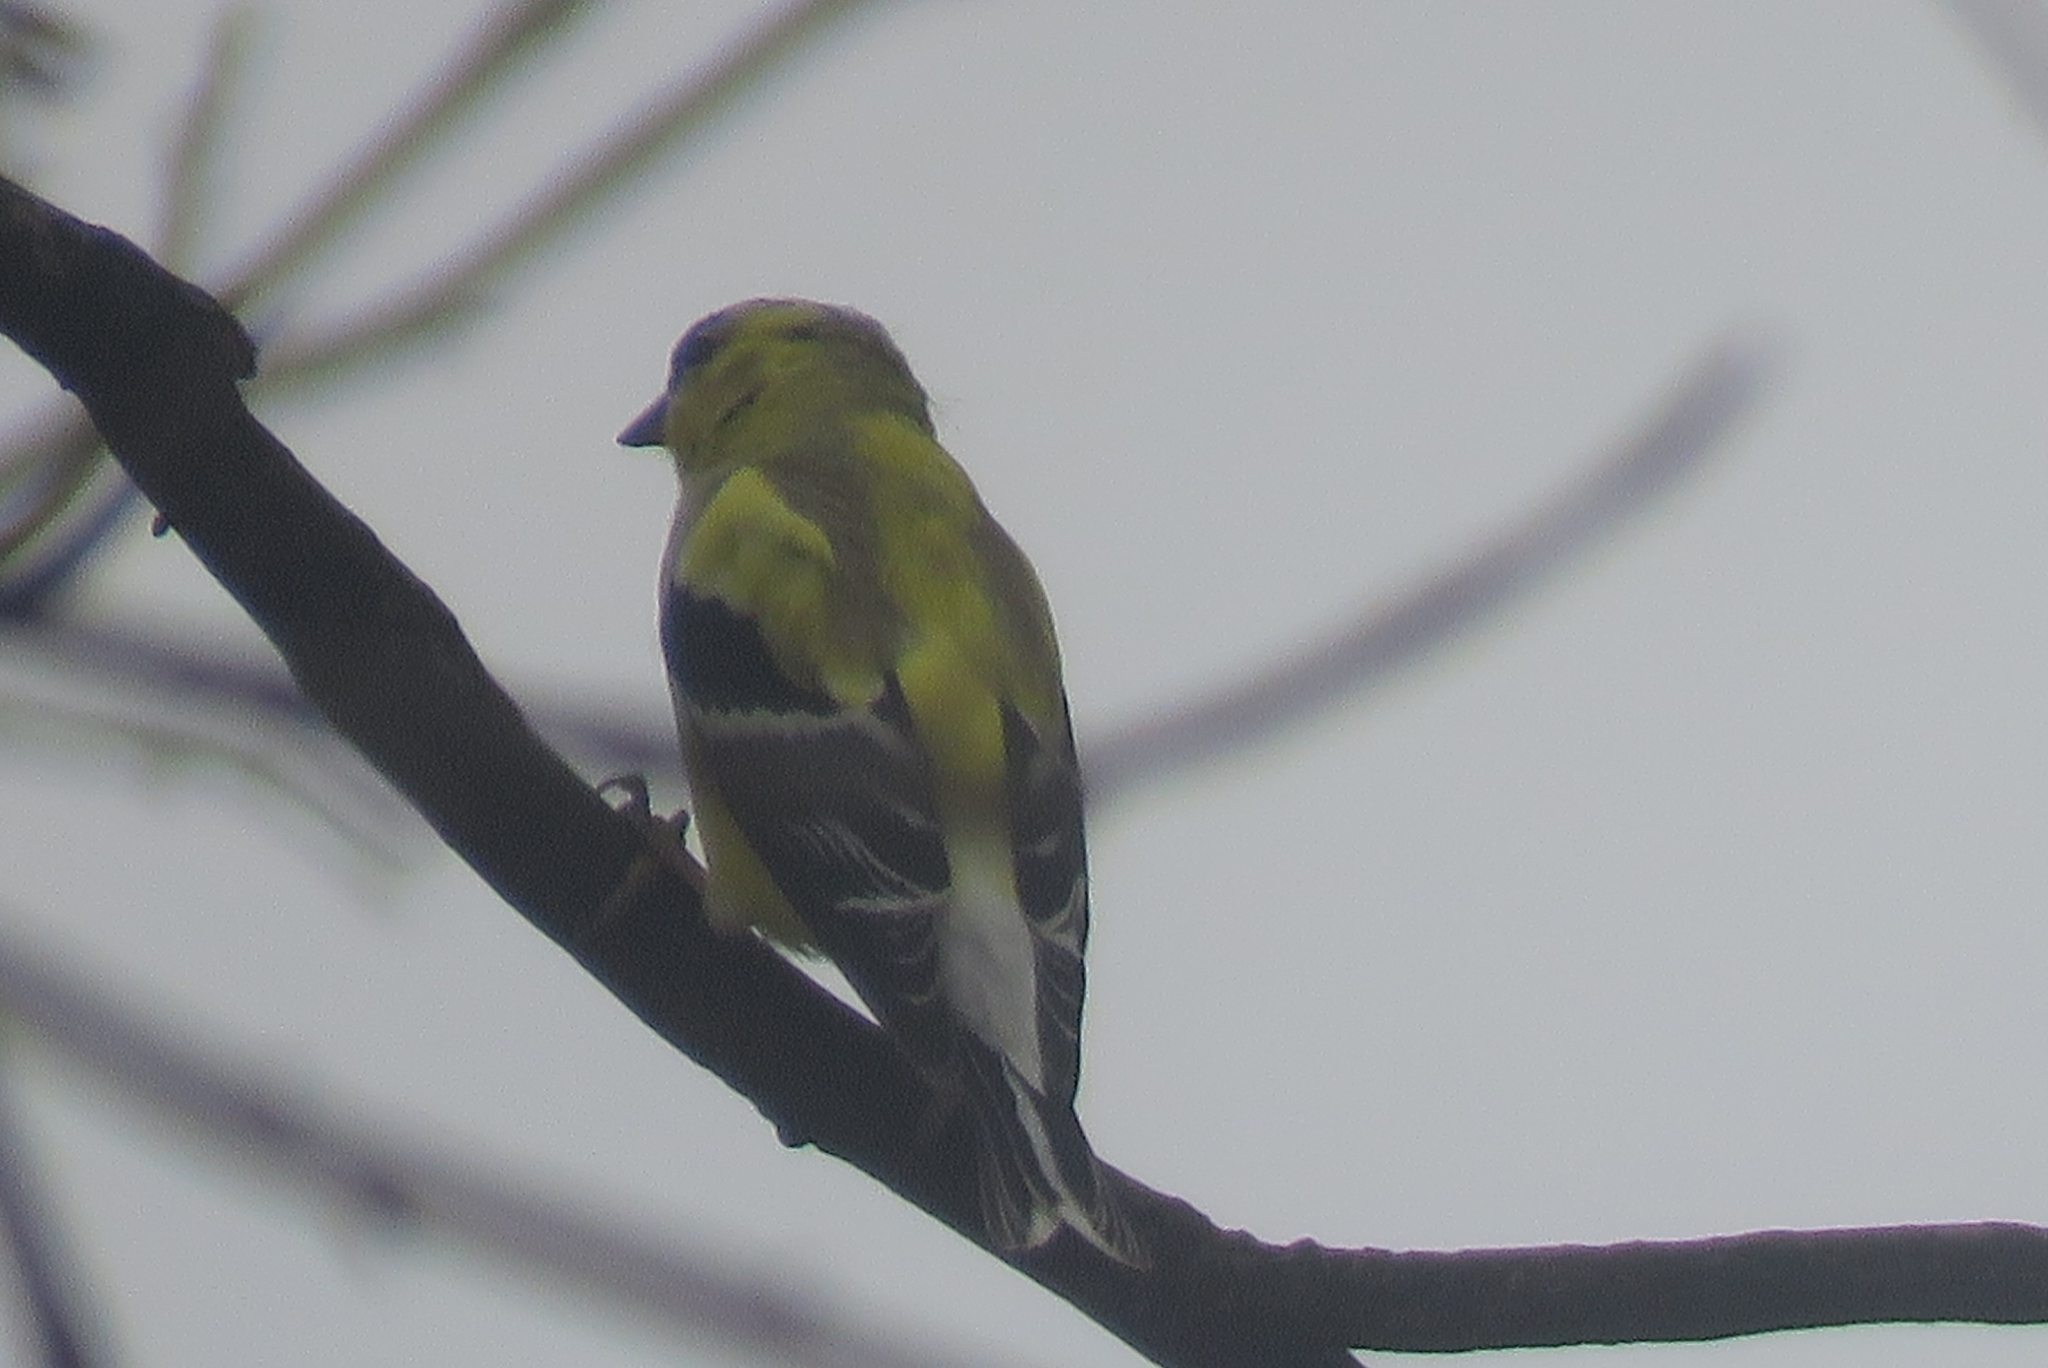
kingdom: Animalia
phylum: Chordata
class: Aves
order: Passeriformes
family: Fringillidae
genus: Spinus
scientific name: Spinus tristis
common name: American goldfinch
